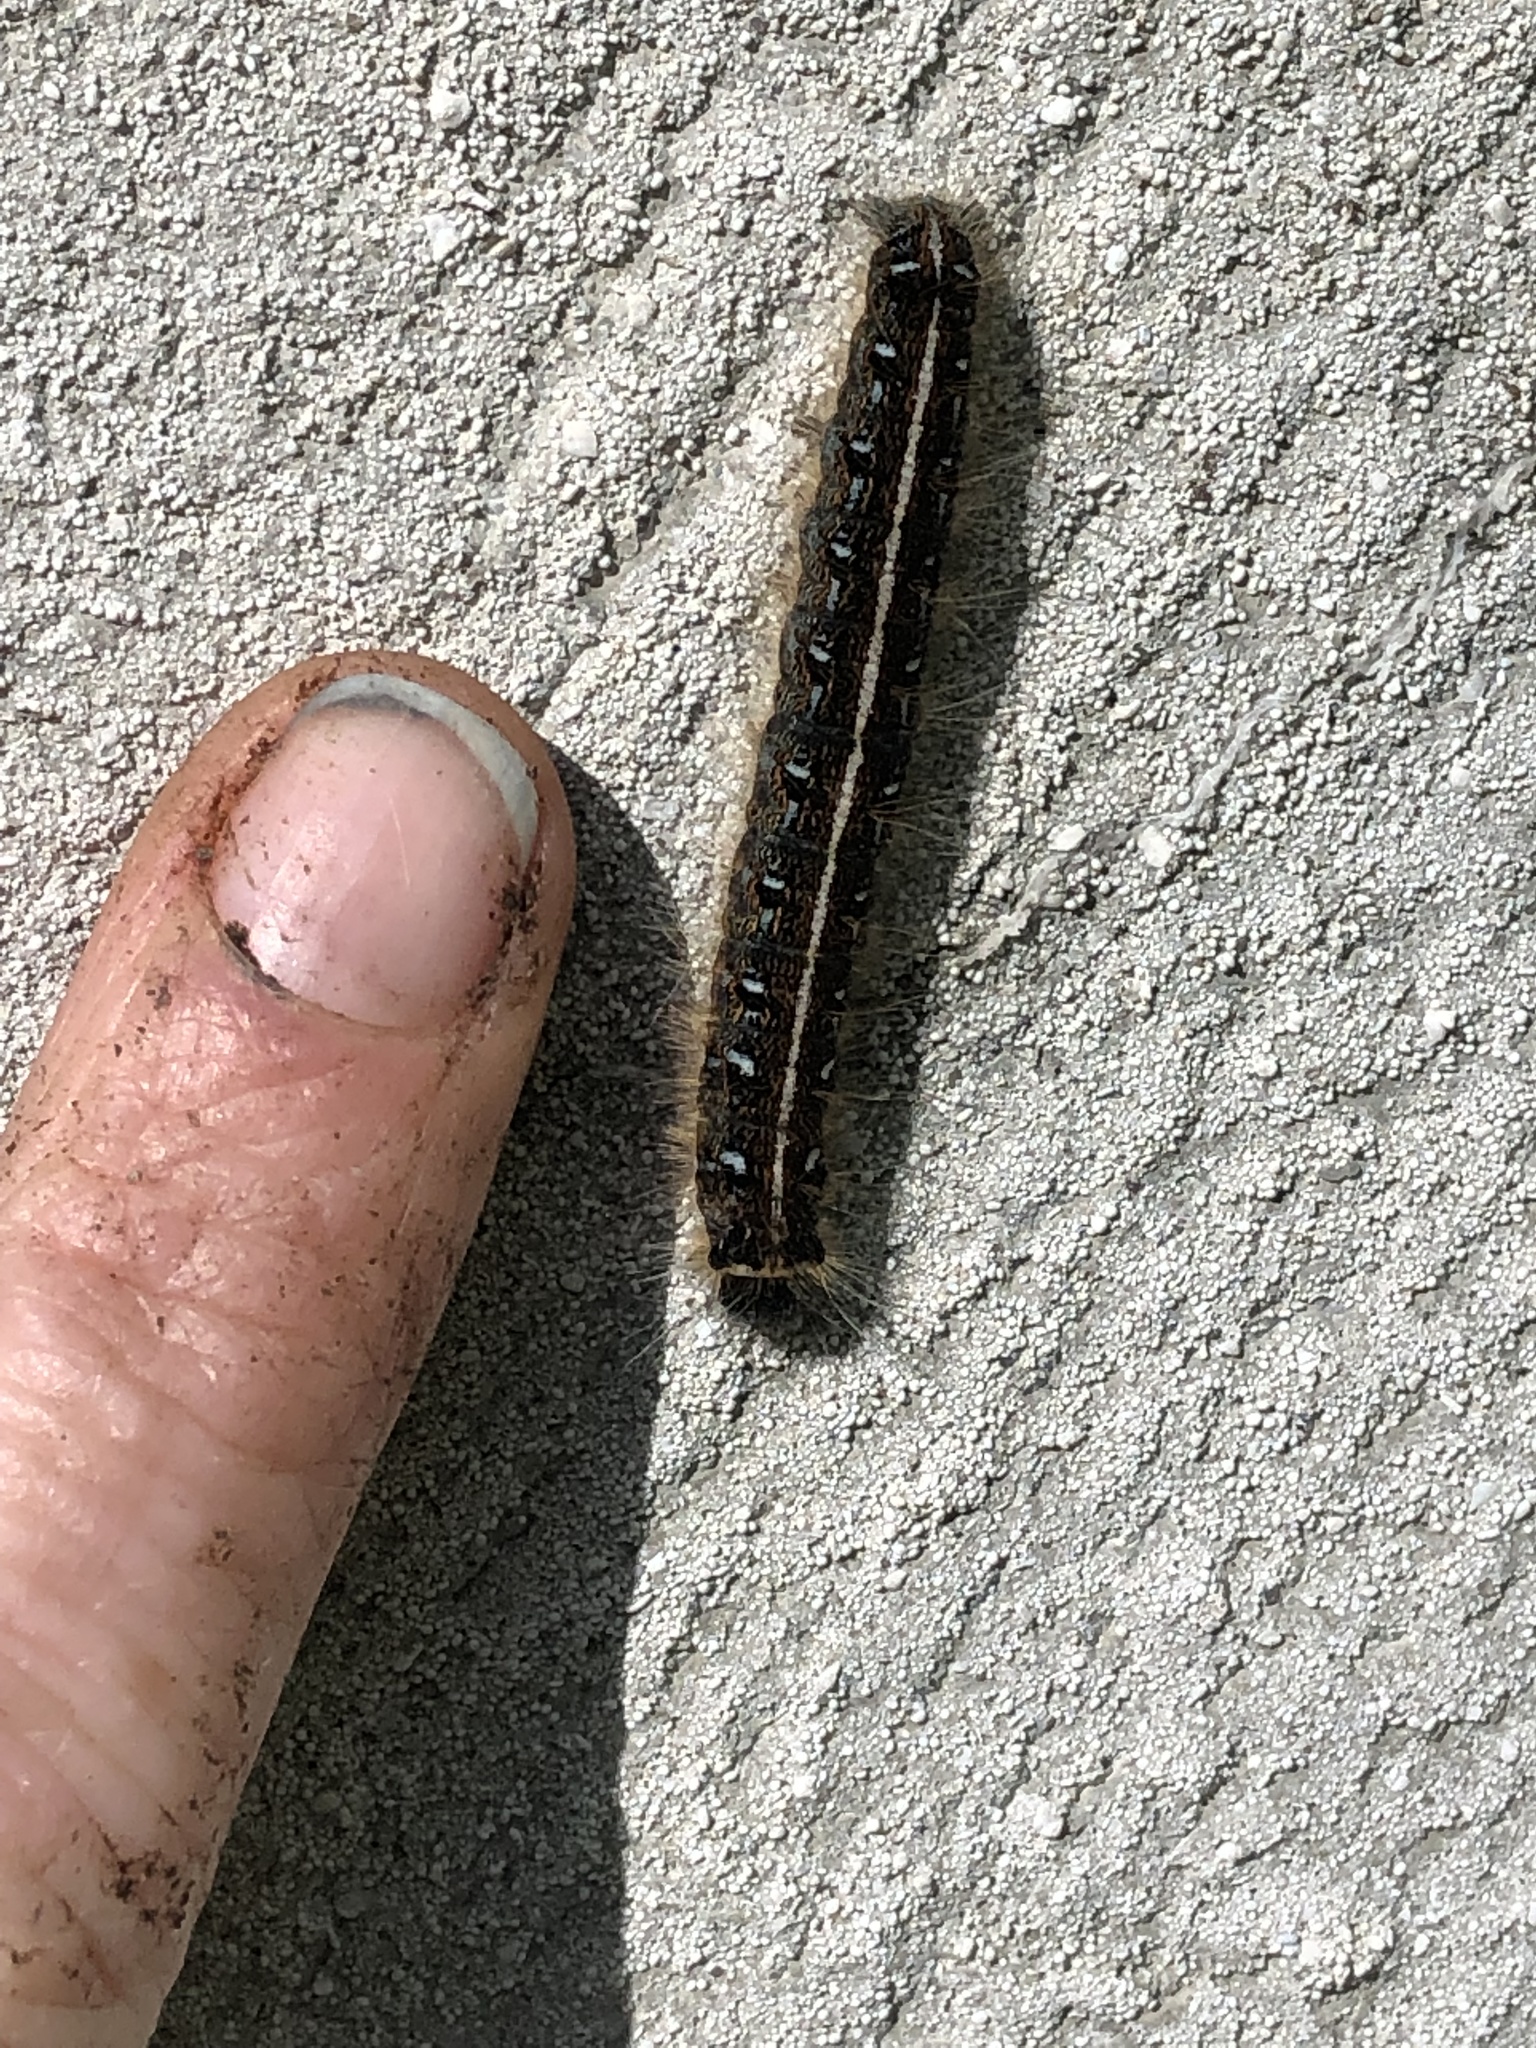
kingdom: Animalia
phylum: Arthropoda
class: Insecta
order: Lepidoptera
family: Lasiocampidae
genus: Malacosoma
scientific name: Malacosoma americana
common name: Eastern tent caterpillar moth
